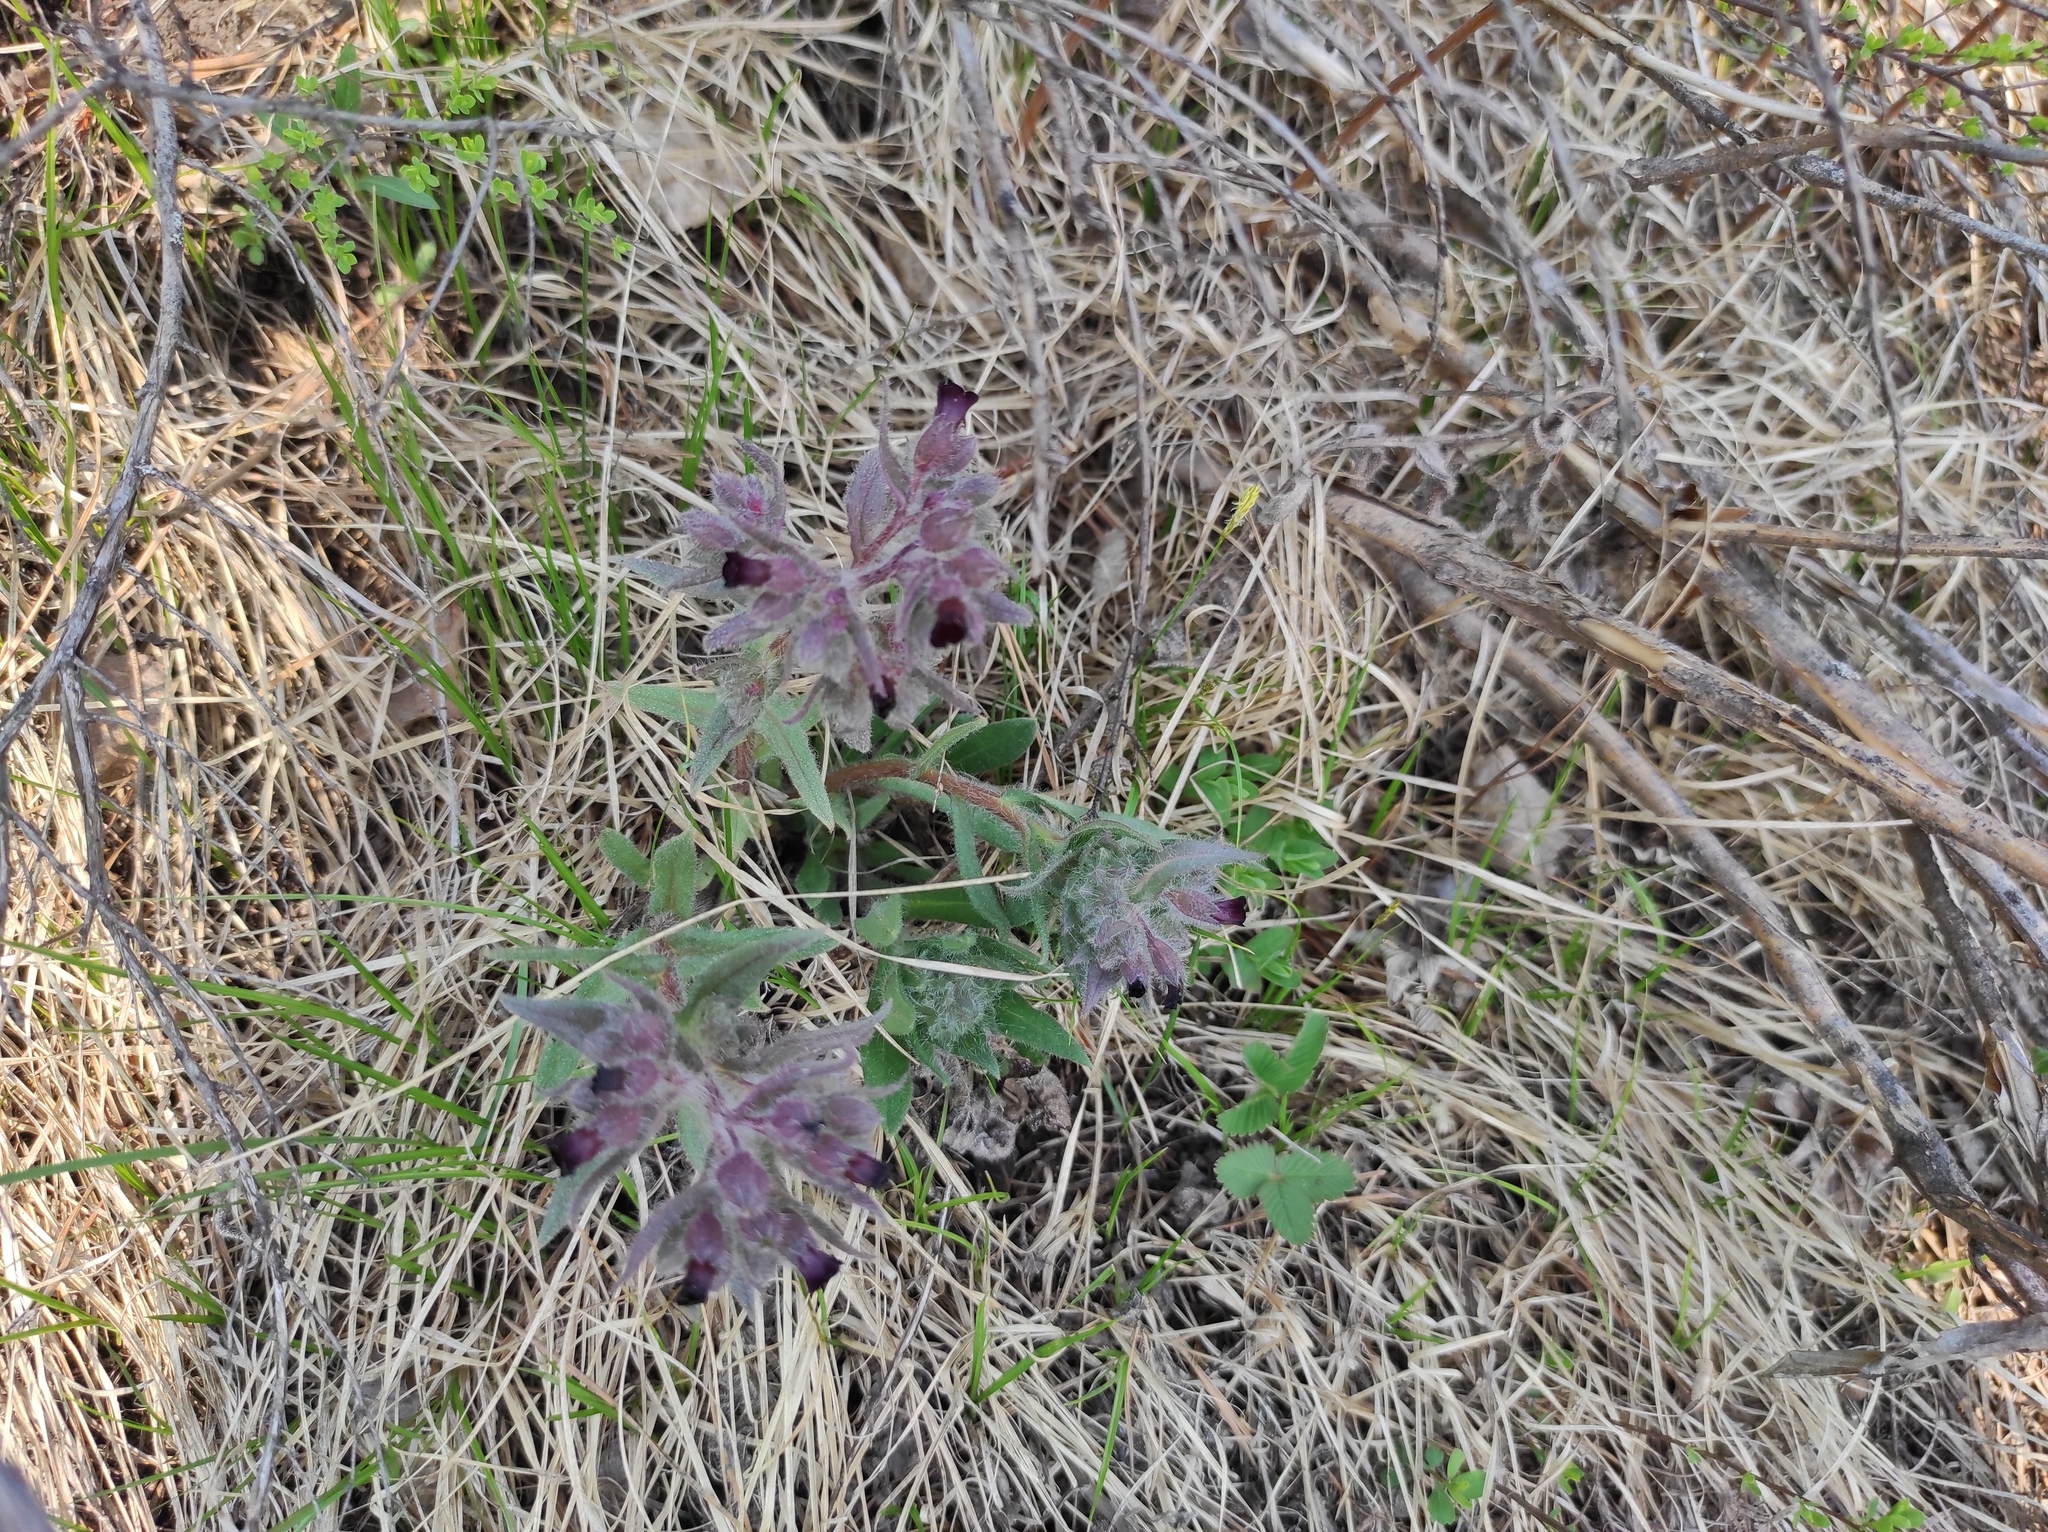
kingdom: Plantae
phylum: Tracheophyta
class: Magnoliopsida
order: Boraginales
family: Boraginaceae
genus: Nonea
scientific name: Nonea pulla
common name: Brown nonea
